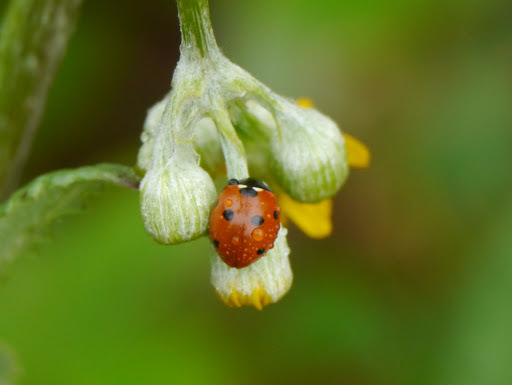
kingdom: Animalia
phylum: Arthropoda
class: Insecta
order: Coleoptera
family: Coccinellidae
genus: Coccinella
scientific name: Coccinella septempunctata
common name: Sevenspotted lady beetle
